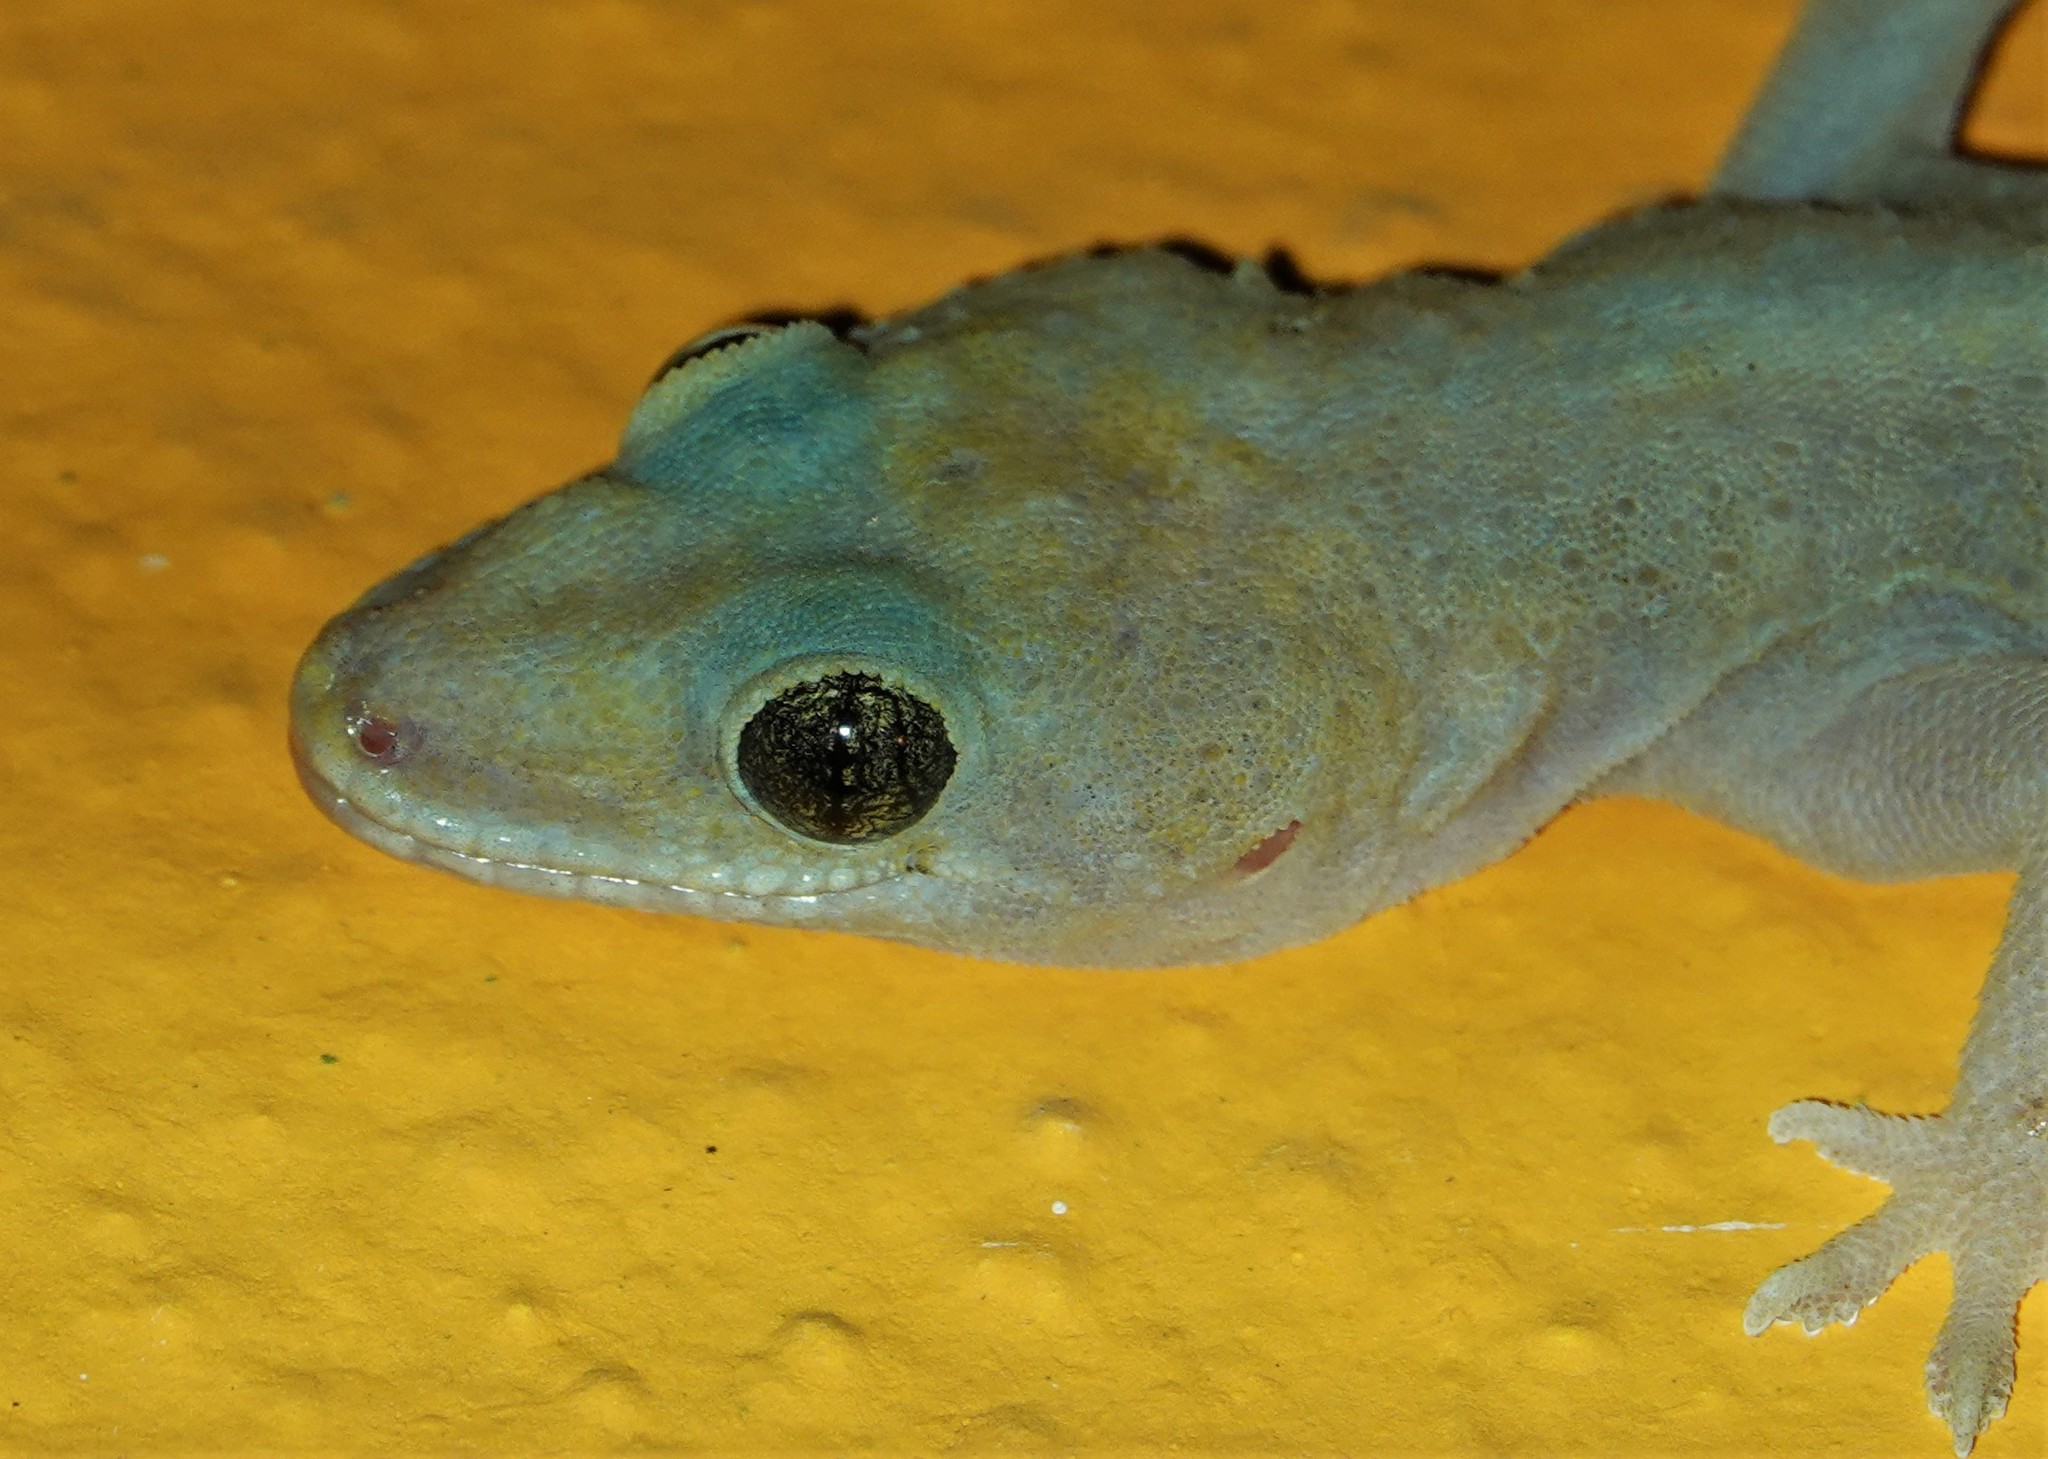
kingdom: Animalia
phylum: Chordata
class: Squamata
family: Gekkonidae
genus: Hemidactylus
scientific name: Hemidactylus mabouia
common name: House gecko
